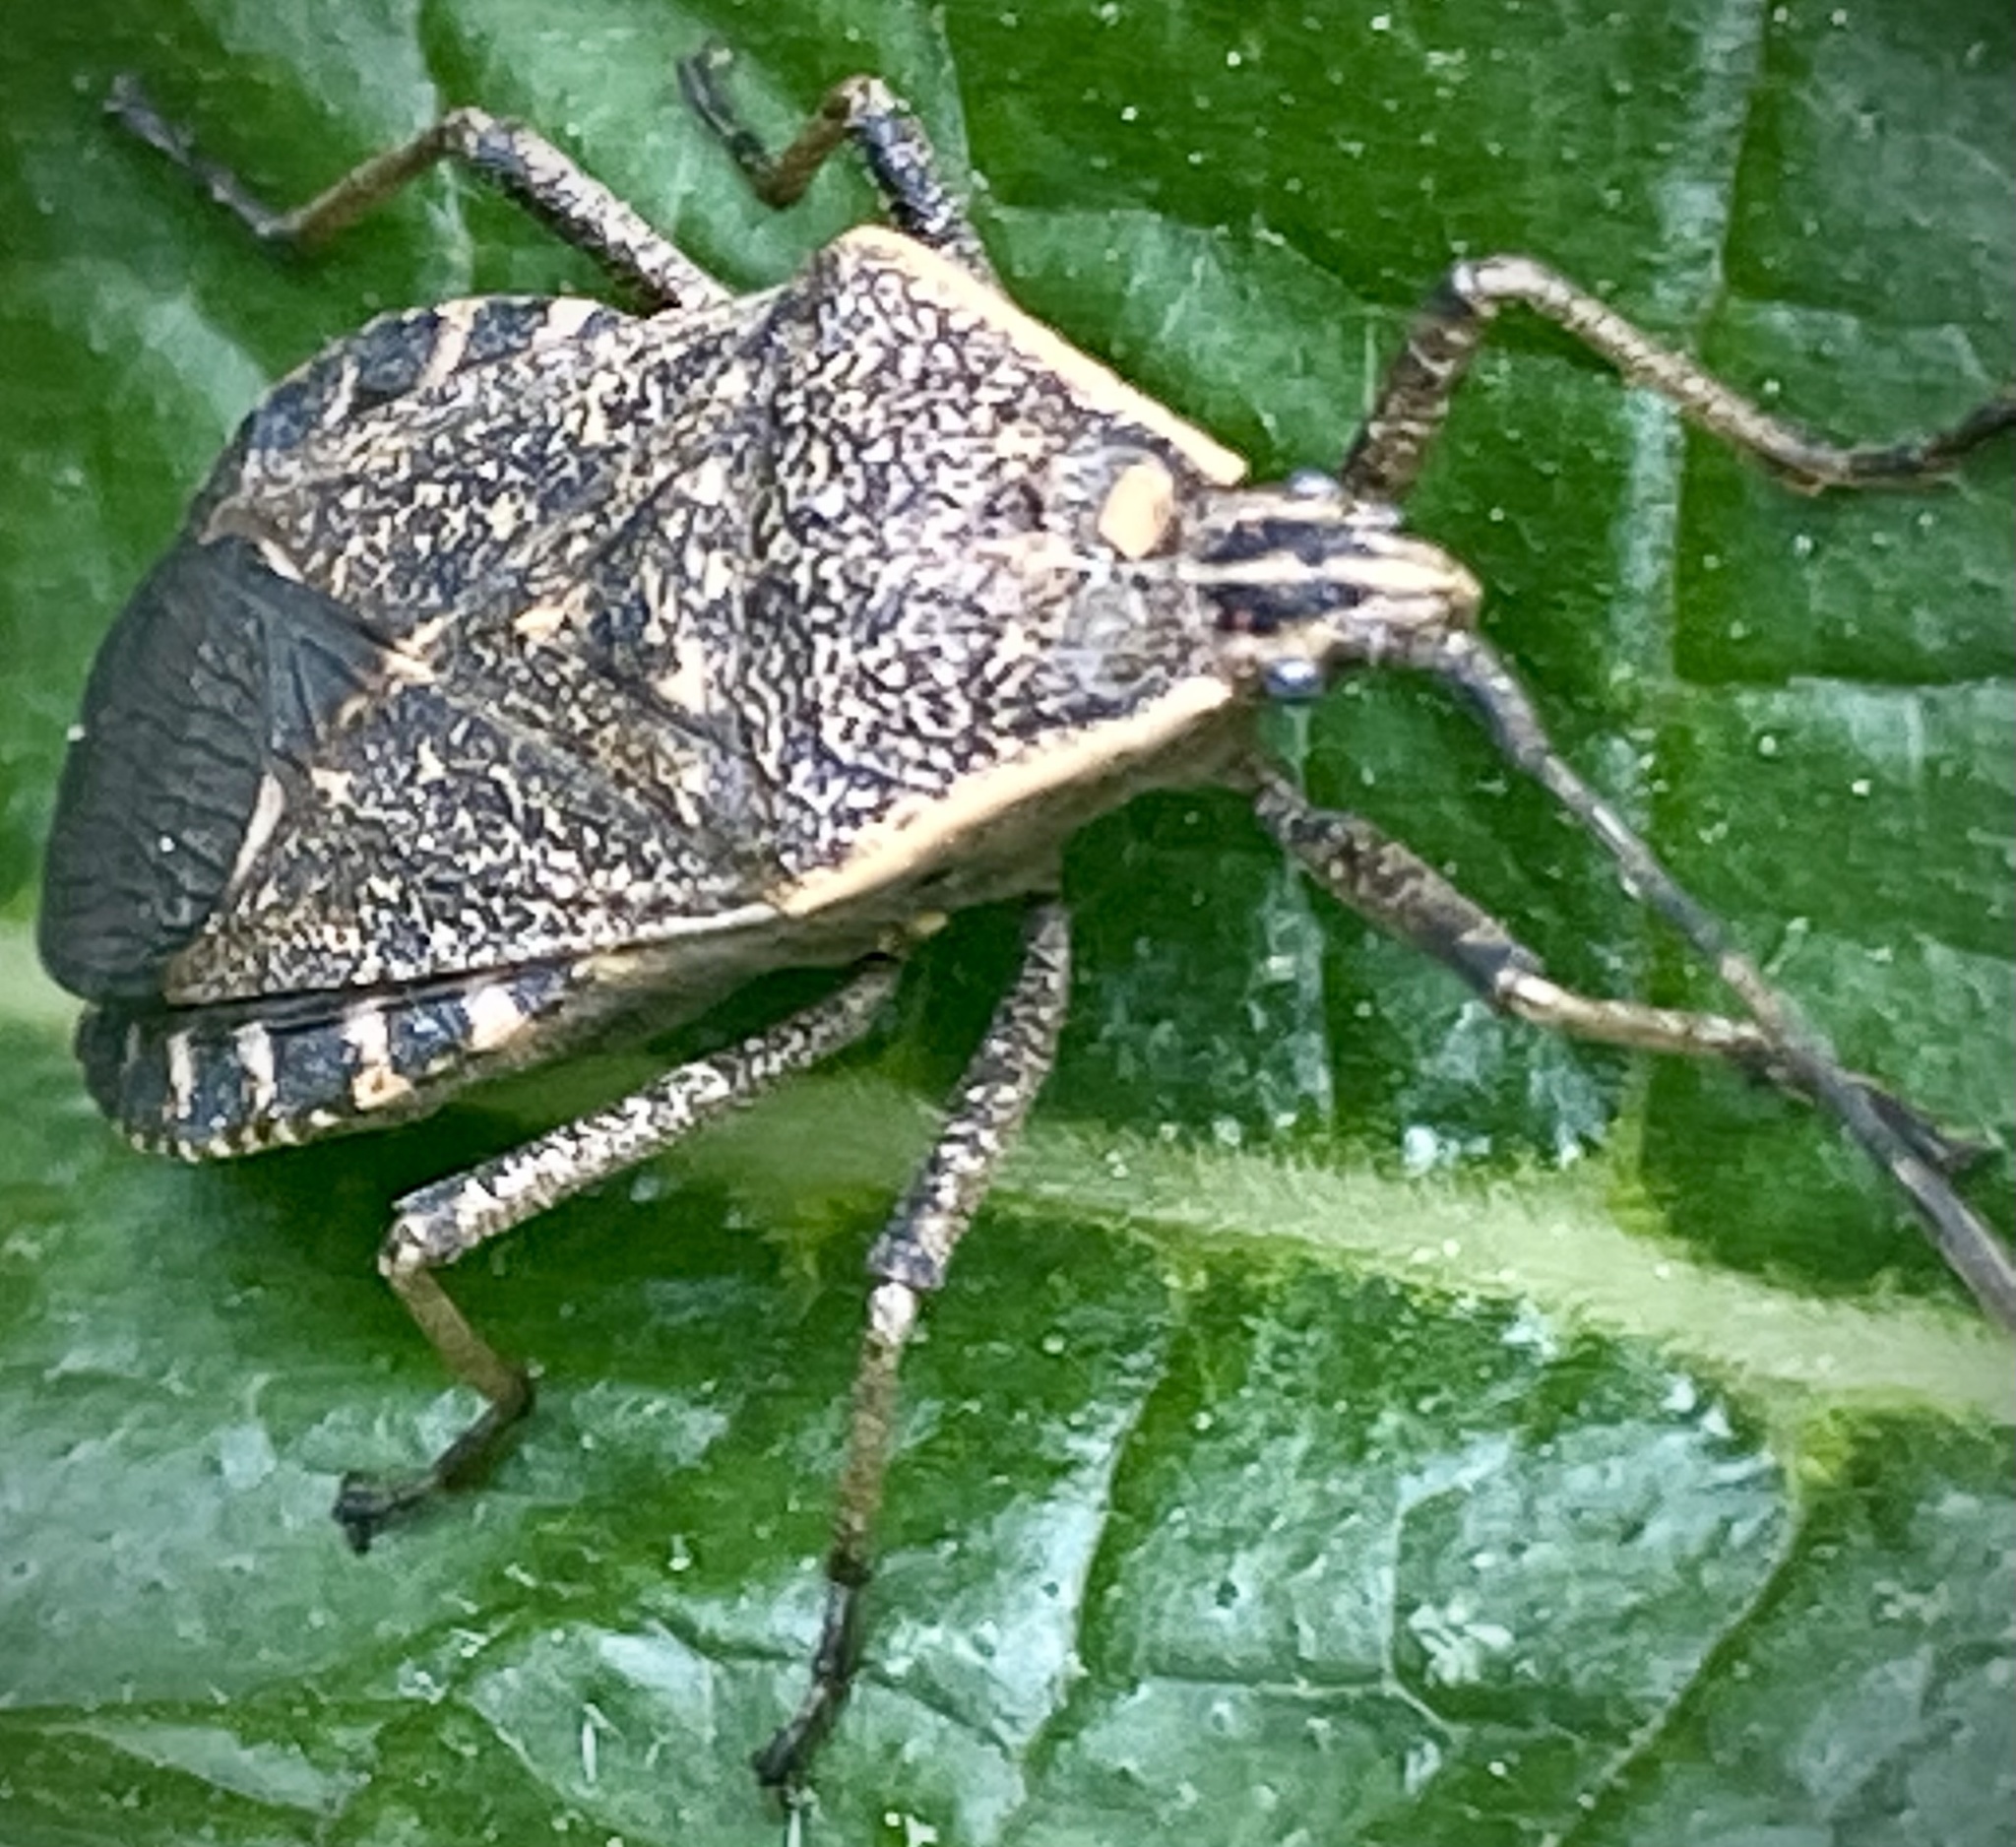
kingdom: Animalia
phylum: Arthropoda
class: Insecta
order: Hemiptera
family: Coreidae
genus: Anasa
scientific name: Anasa tristis
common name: Squash bug
